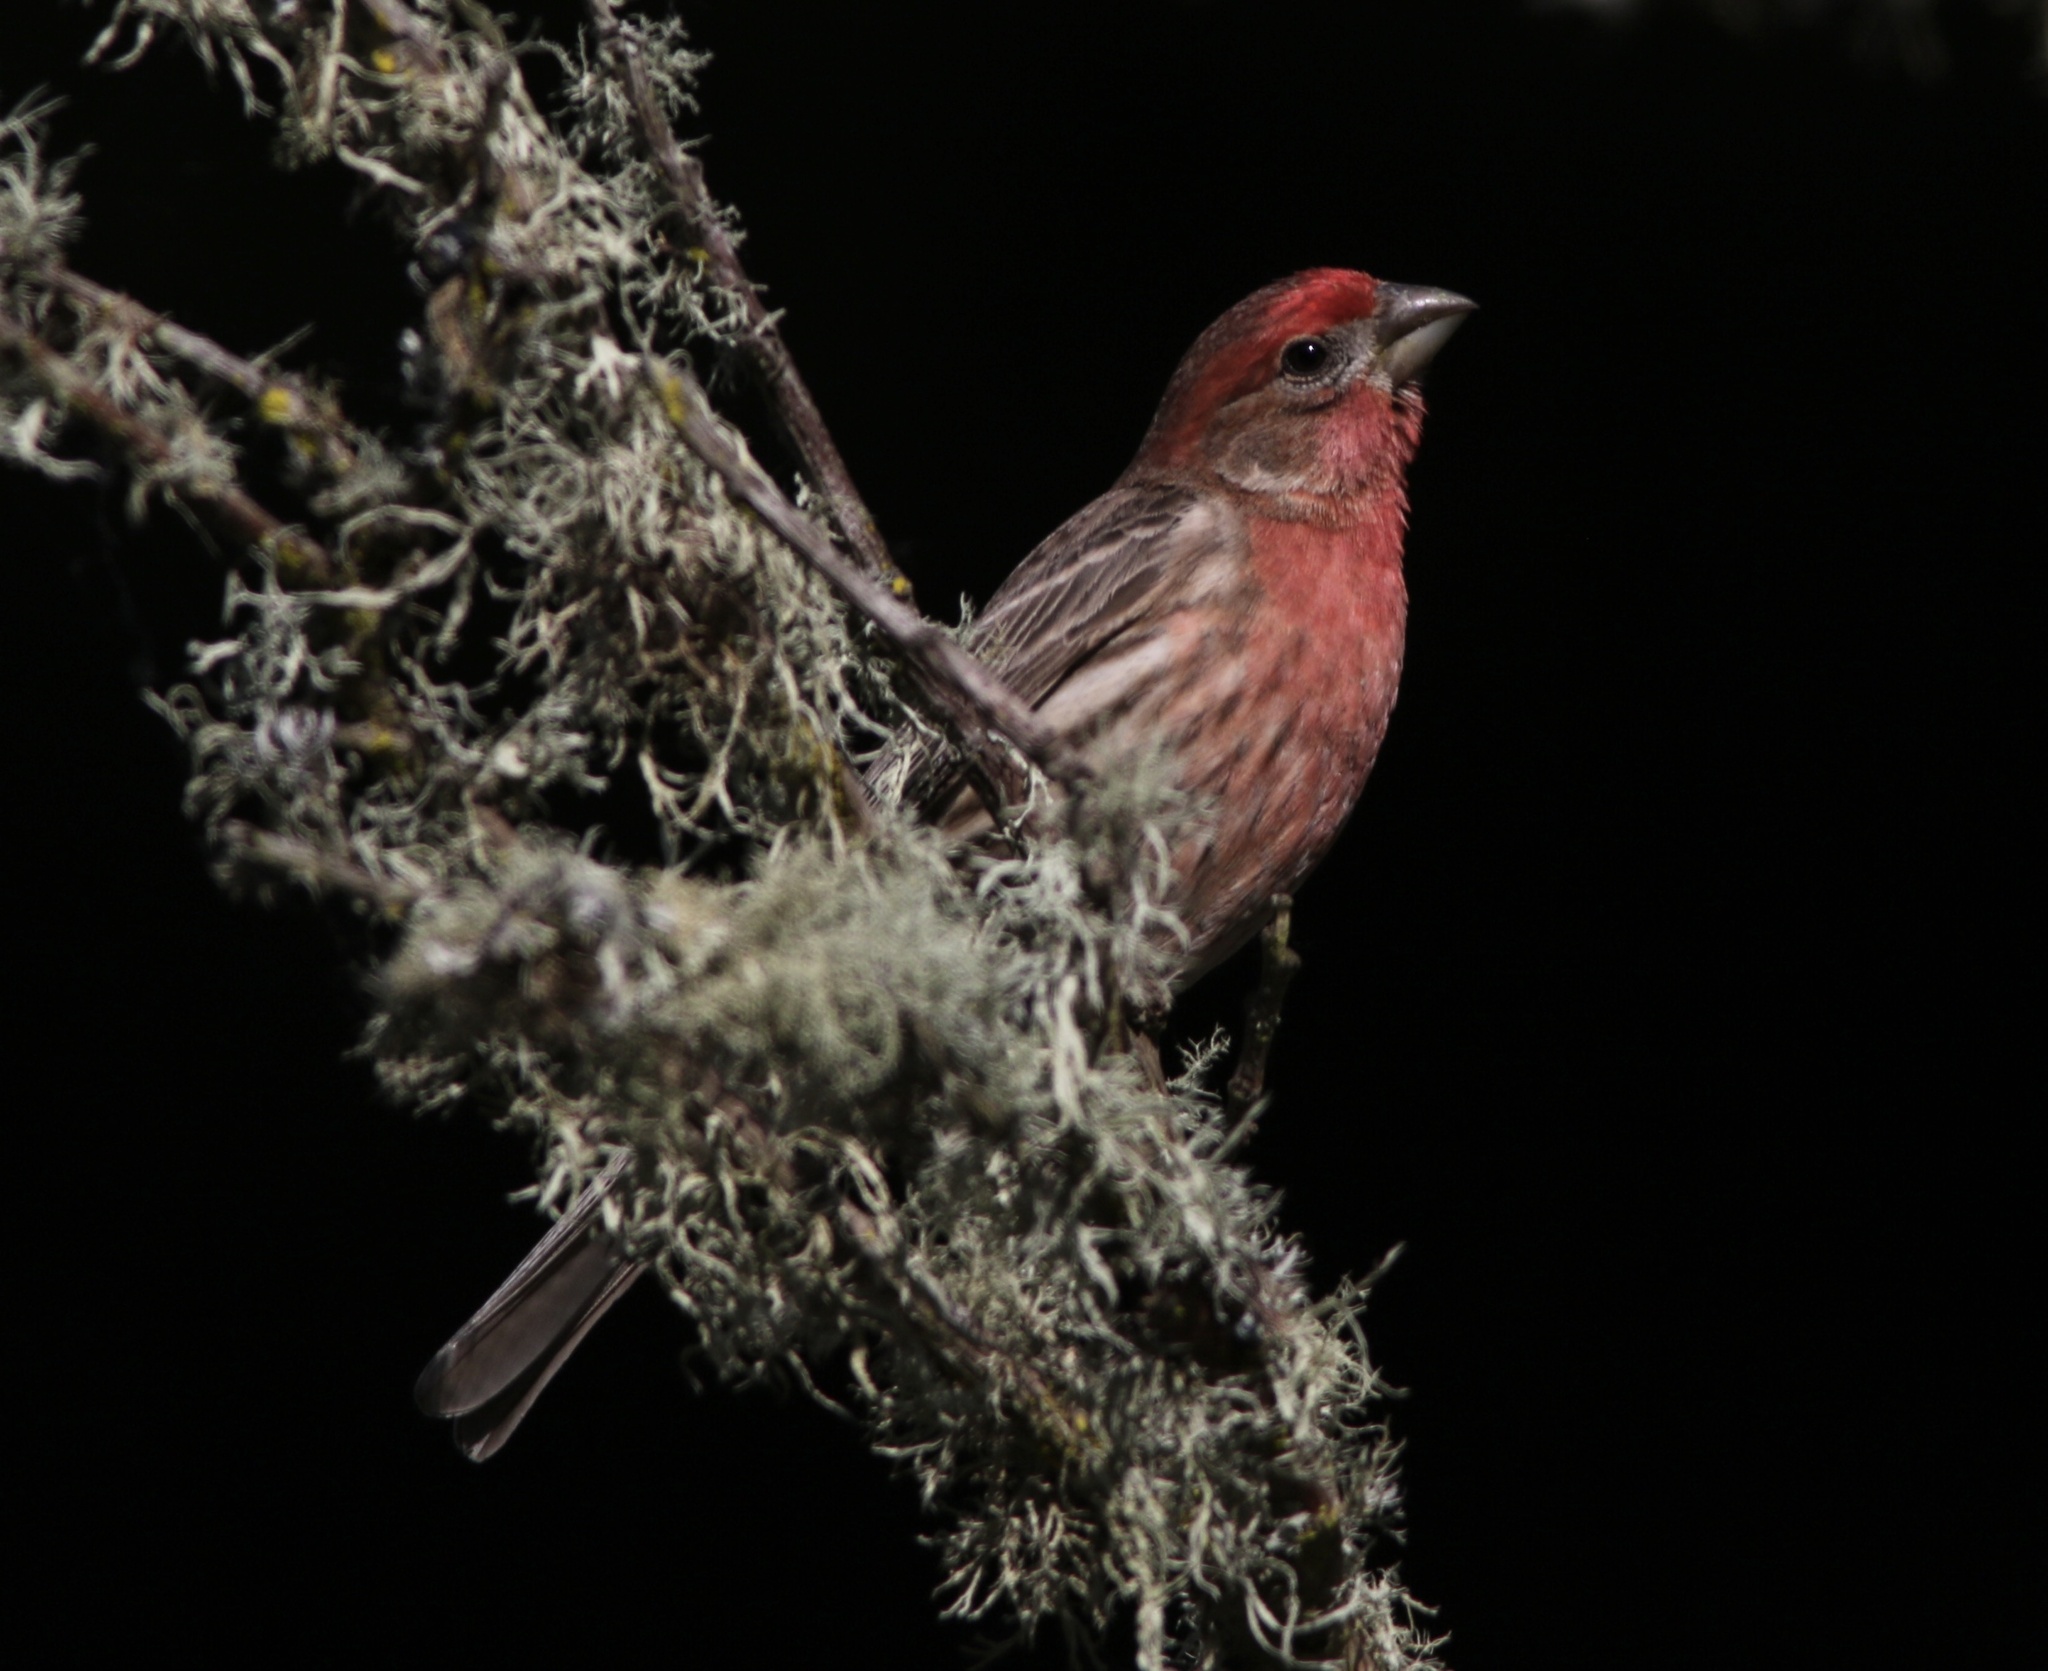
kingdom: Animalia
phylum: Chordata
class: Aves
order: Passeriformes
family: Fringillidae
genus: Haemorhous
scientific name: Haemorhous mexicanus
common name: House finch
